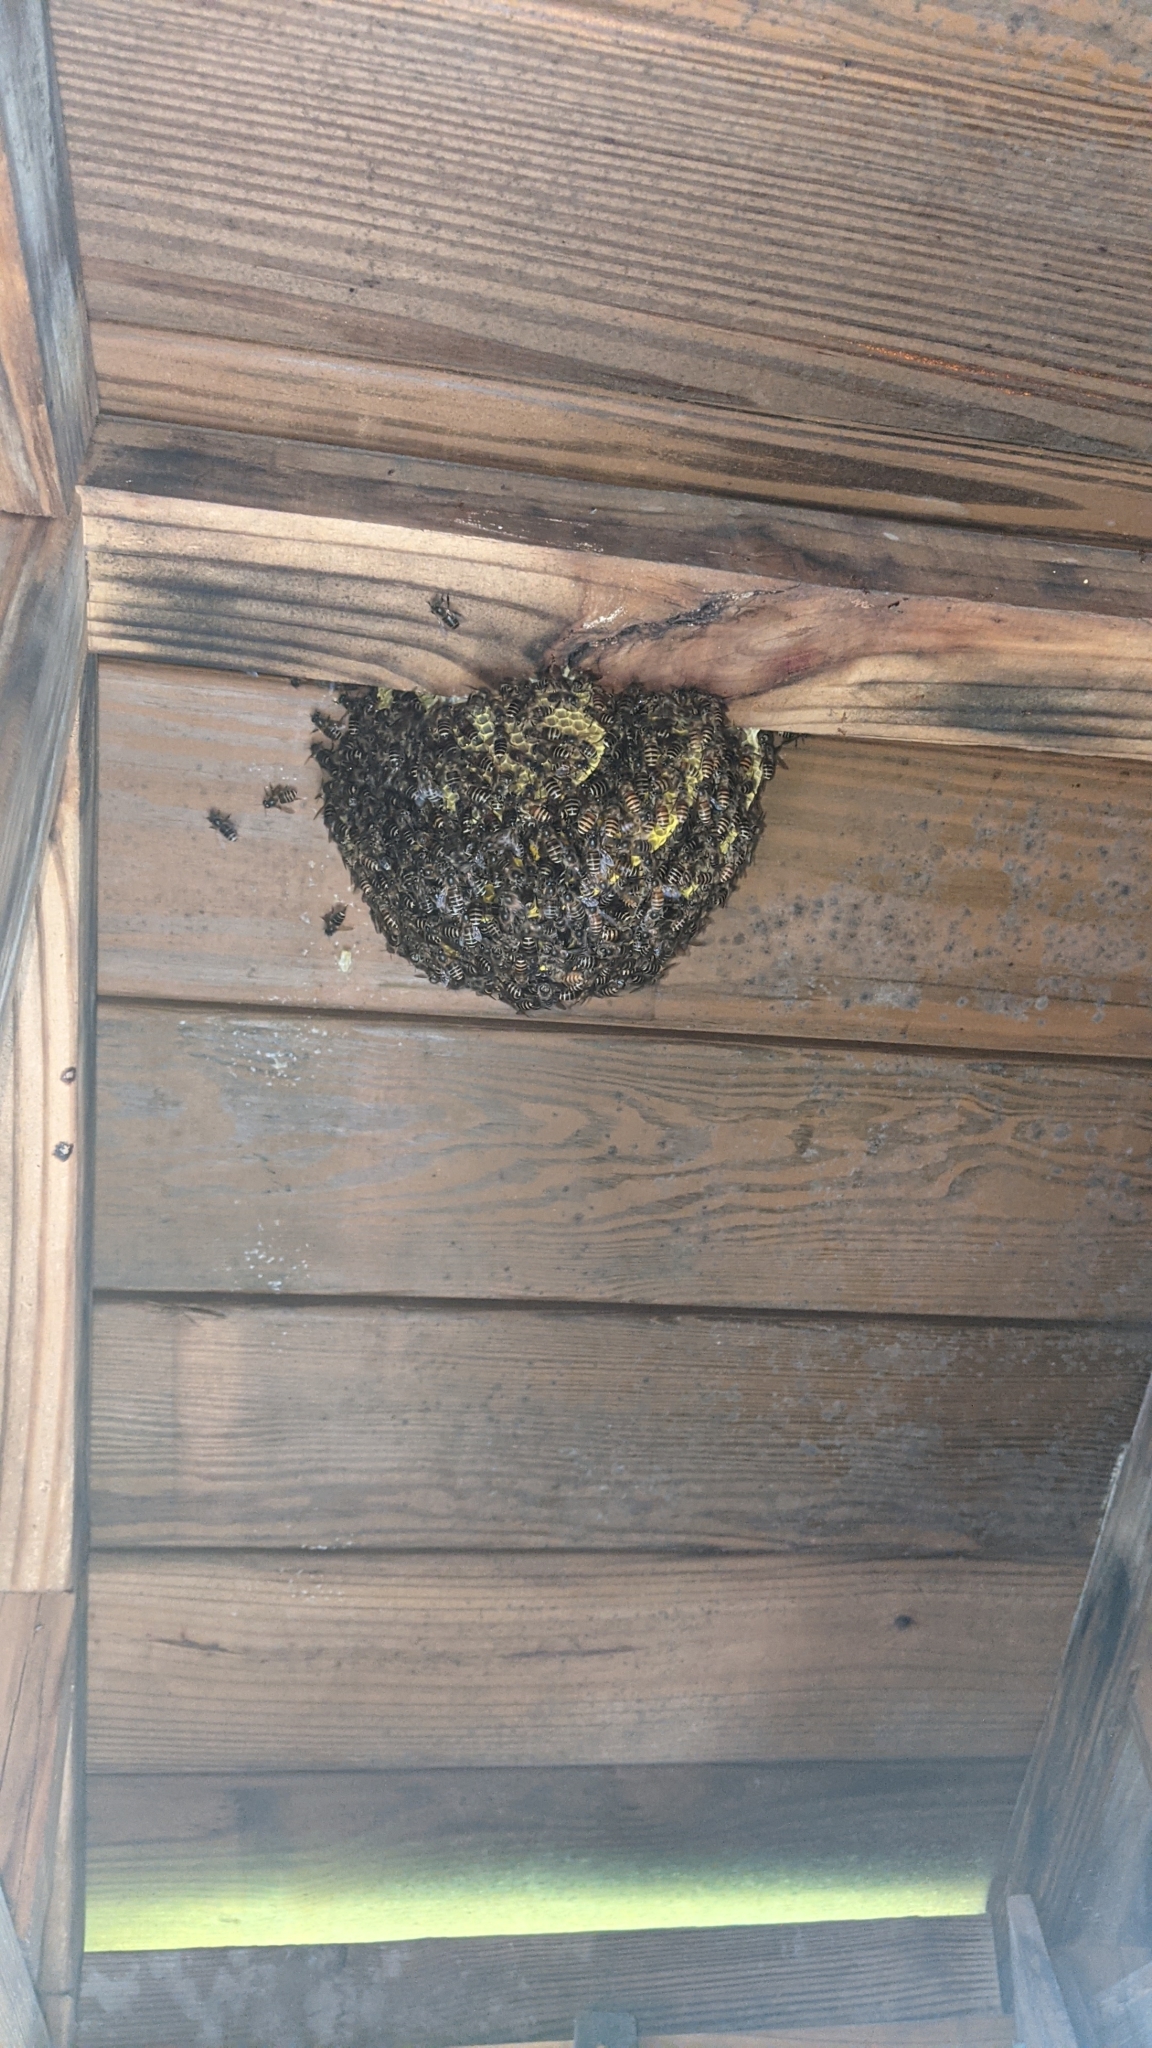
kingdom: Animalia
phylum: Arthropoda
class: Insecta
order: Hymenoptera
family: Apidae
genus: Apis
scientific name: Apis cerana
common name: Honey bee
